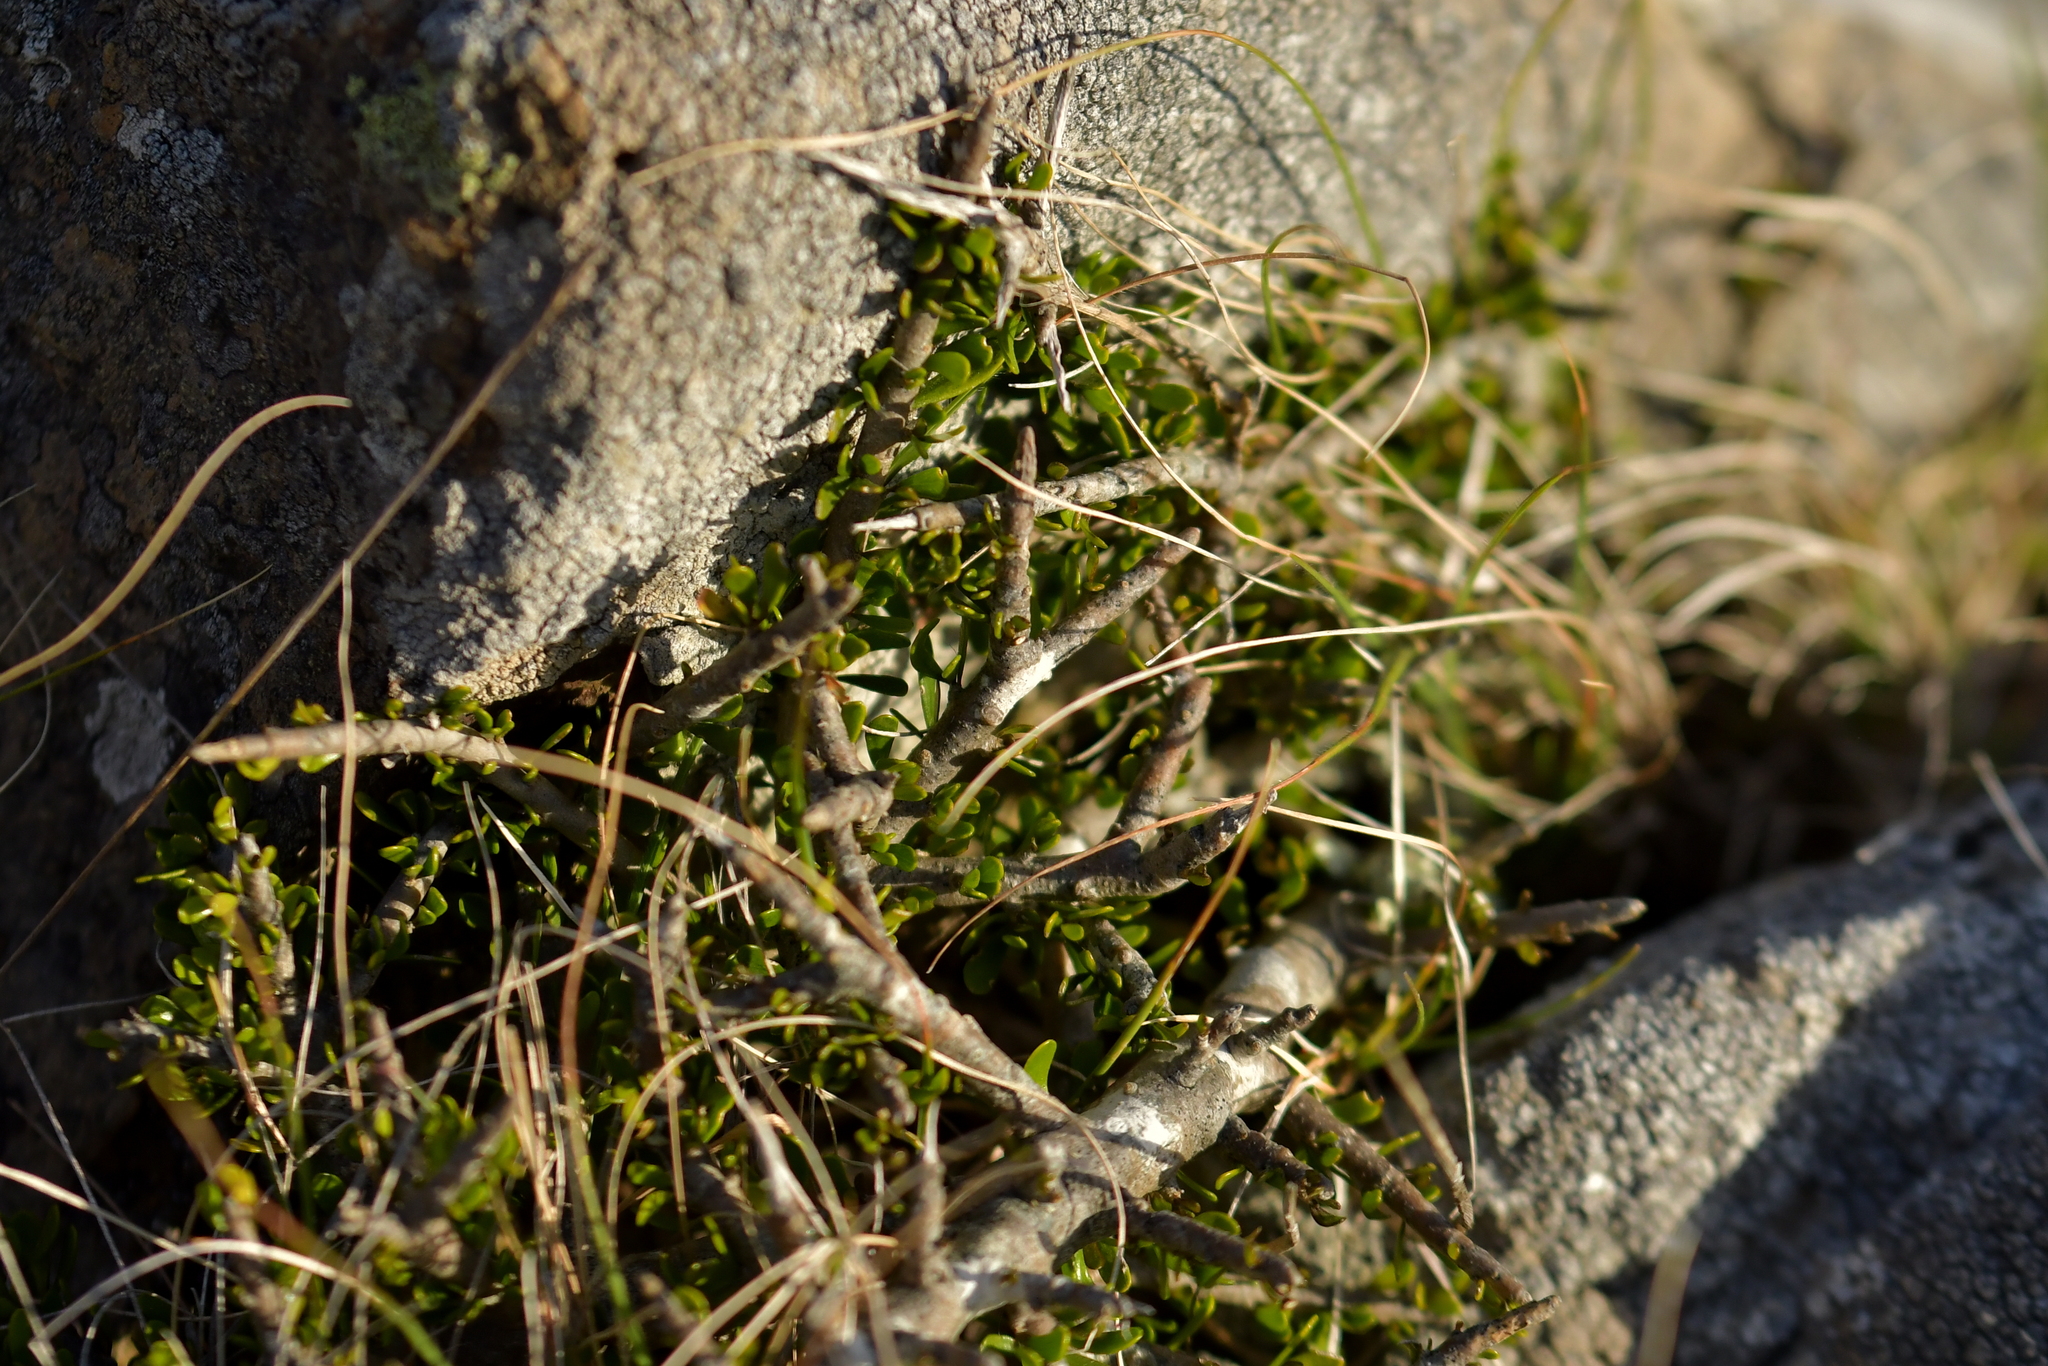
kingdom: Plantae
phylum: Tracheophyta
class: Magnoliopsida
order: Malpighiales
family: Violaceae
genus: Melicytus
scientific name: Melicytus alpinus
